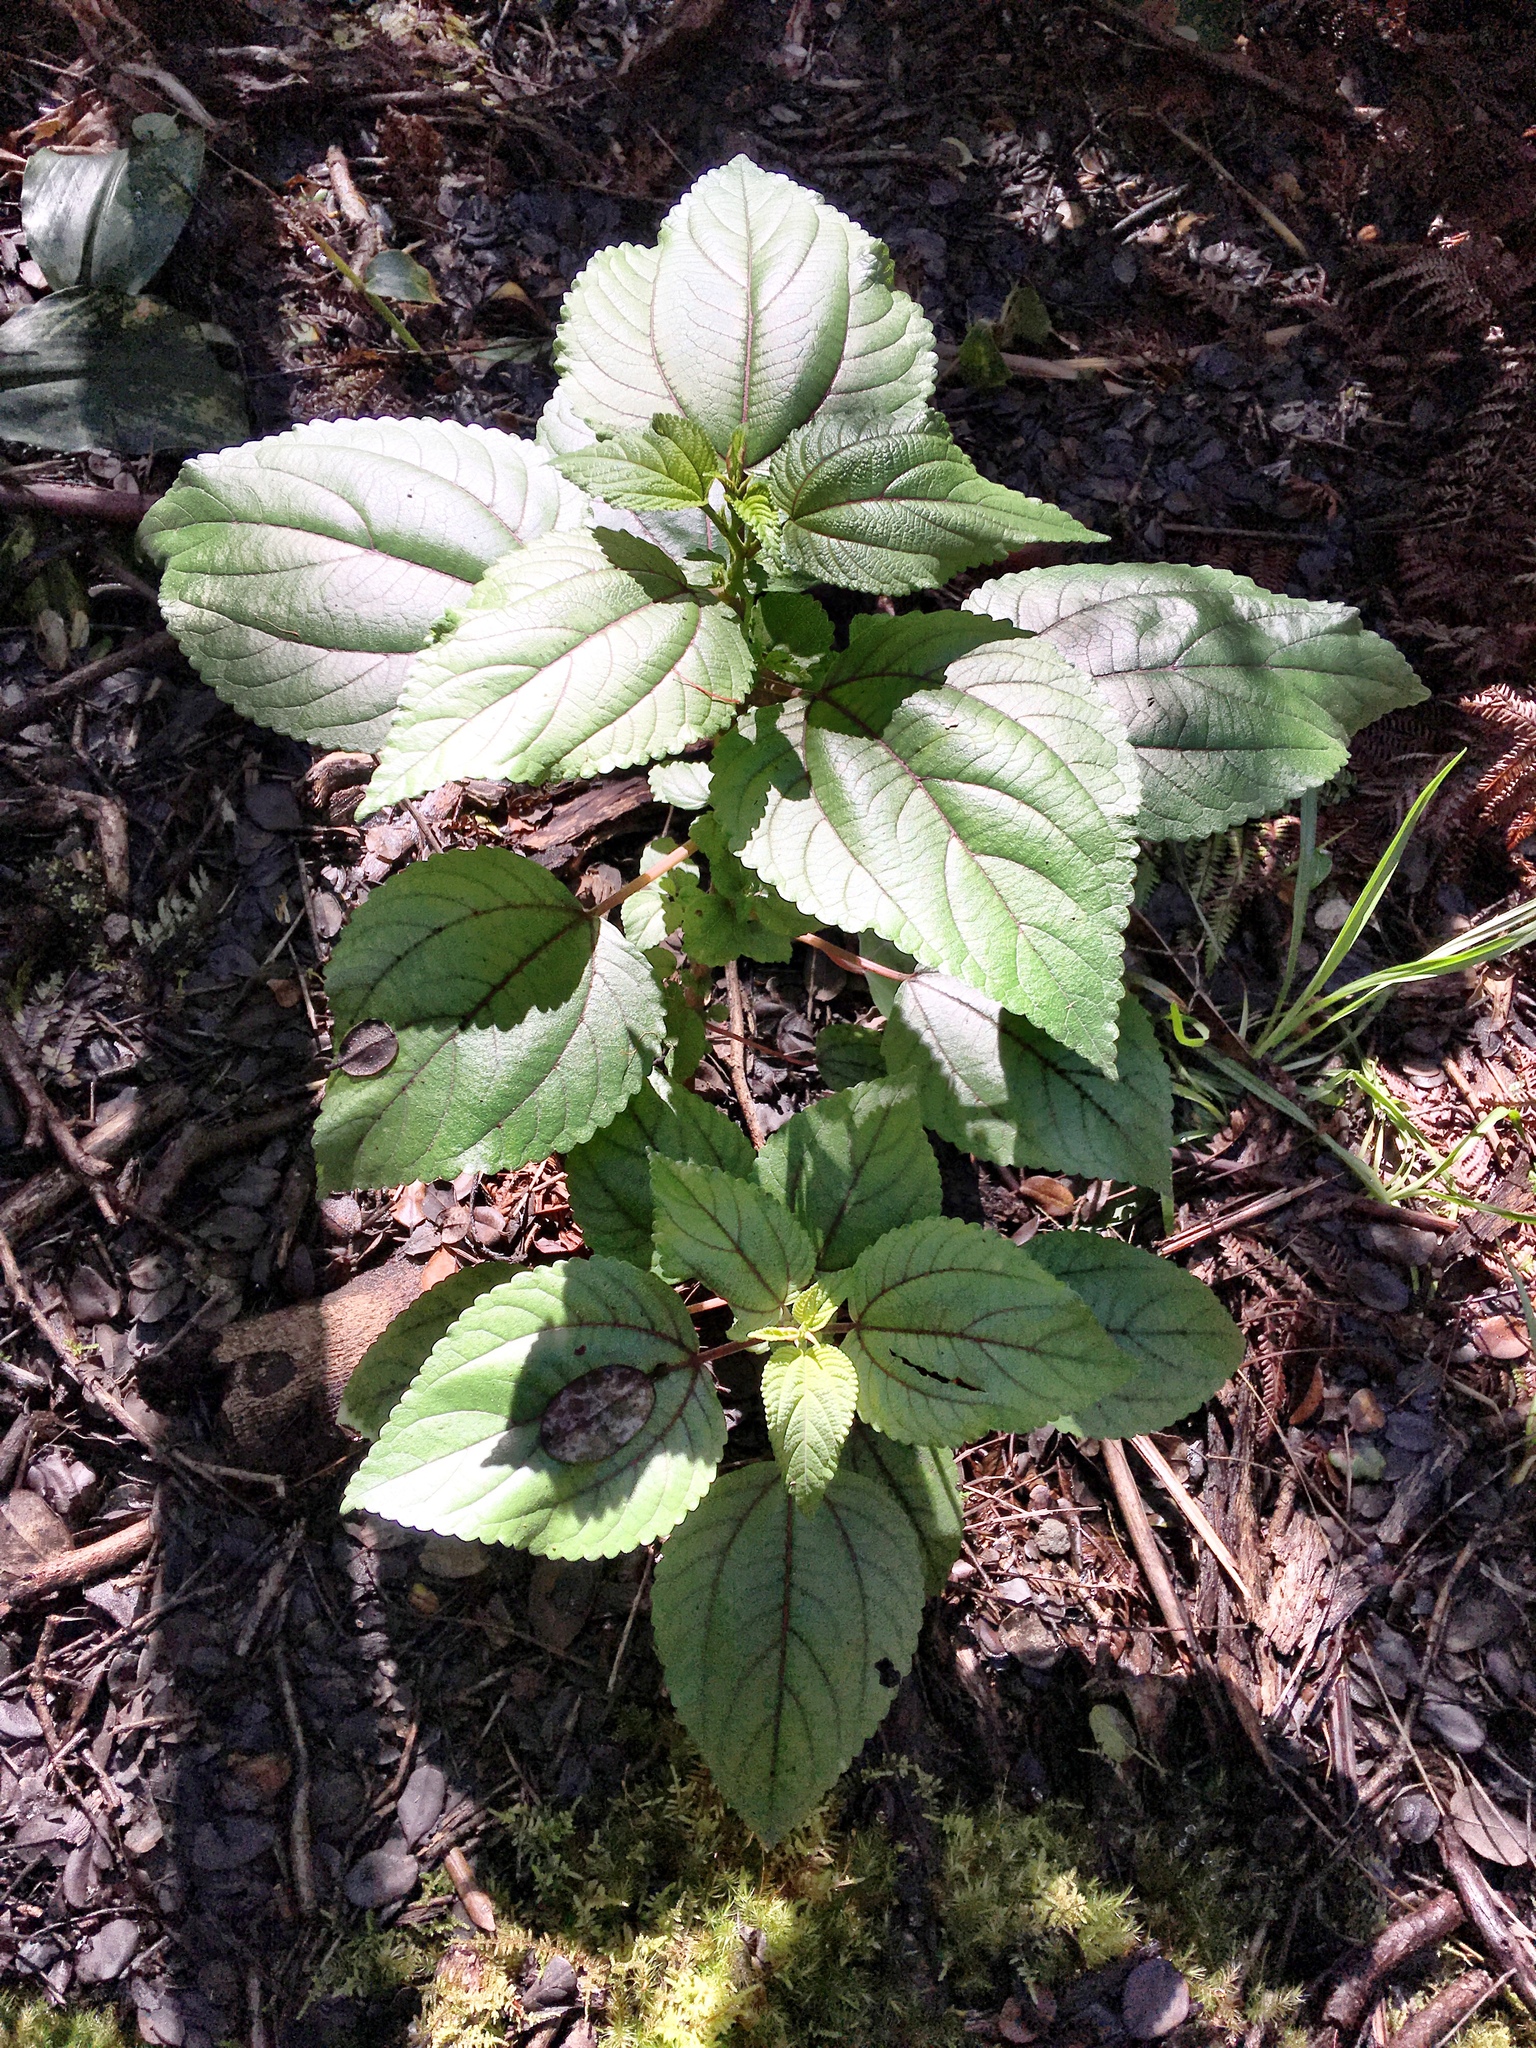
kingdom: Plantae
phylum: Tracheophyta
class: Magnoliopsida
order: Rosales
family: Urticaceae
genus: Pipturus
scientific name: Pipturus albidus
